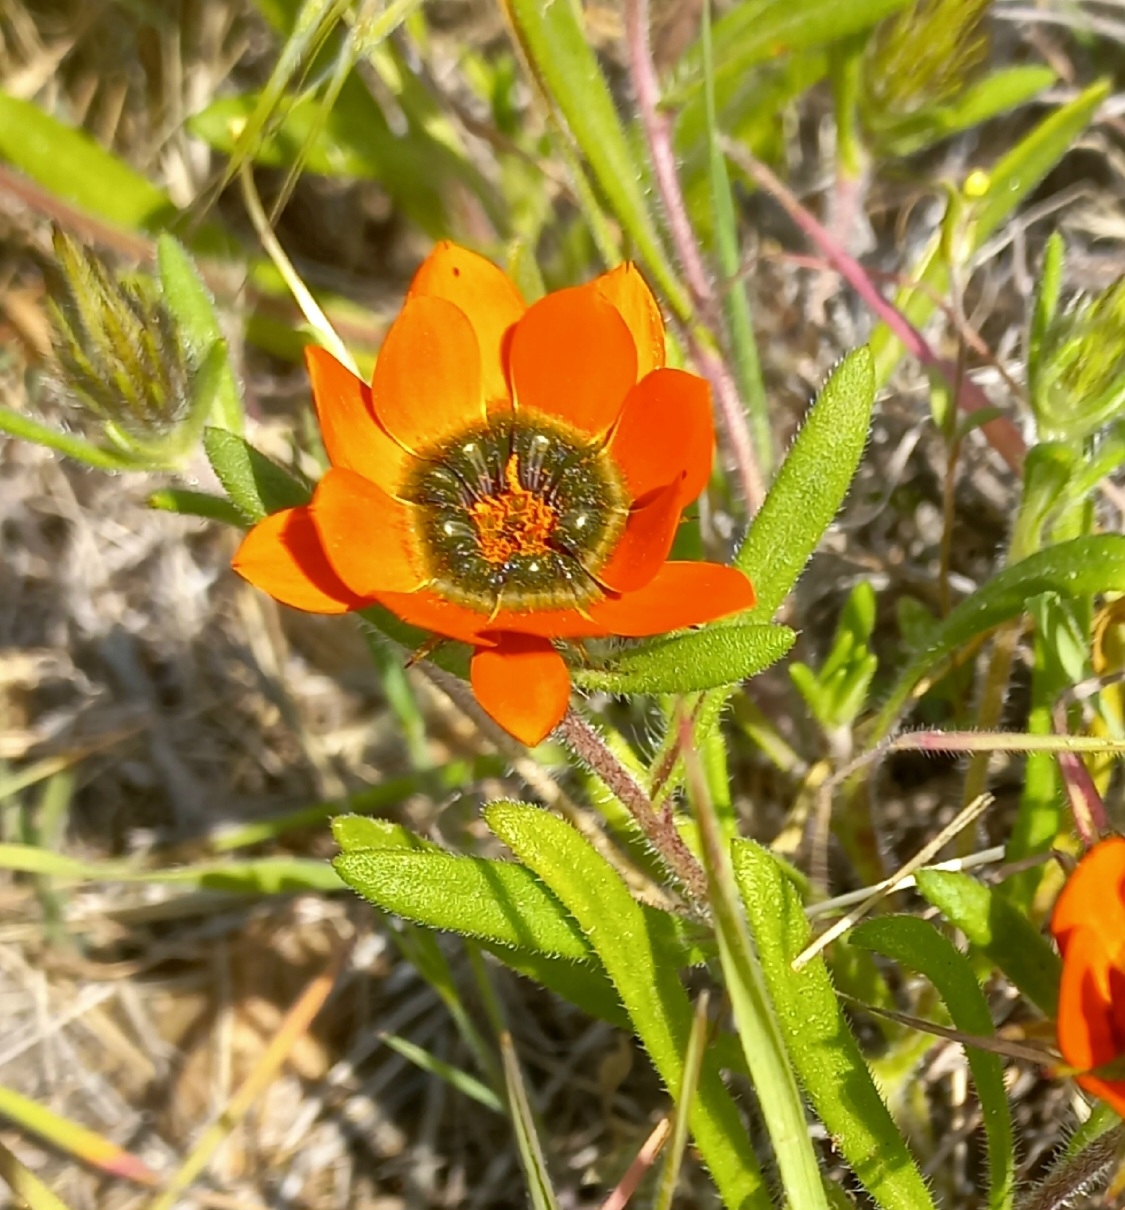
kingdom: Plantae
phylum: Tracheophyta
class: Magnoliopsida
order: Asterales
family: Asteraceae
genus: Gorteria
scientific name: Gorteria diffusa
